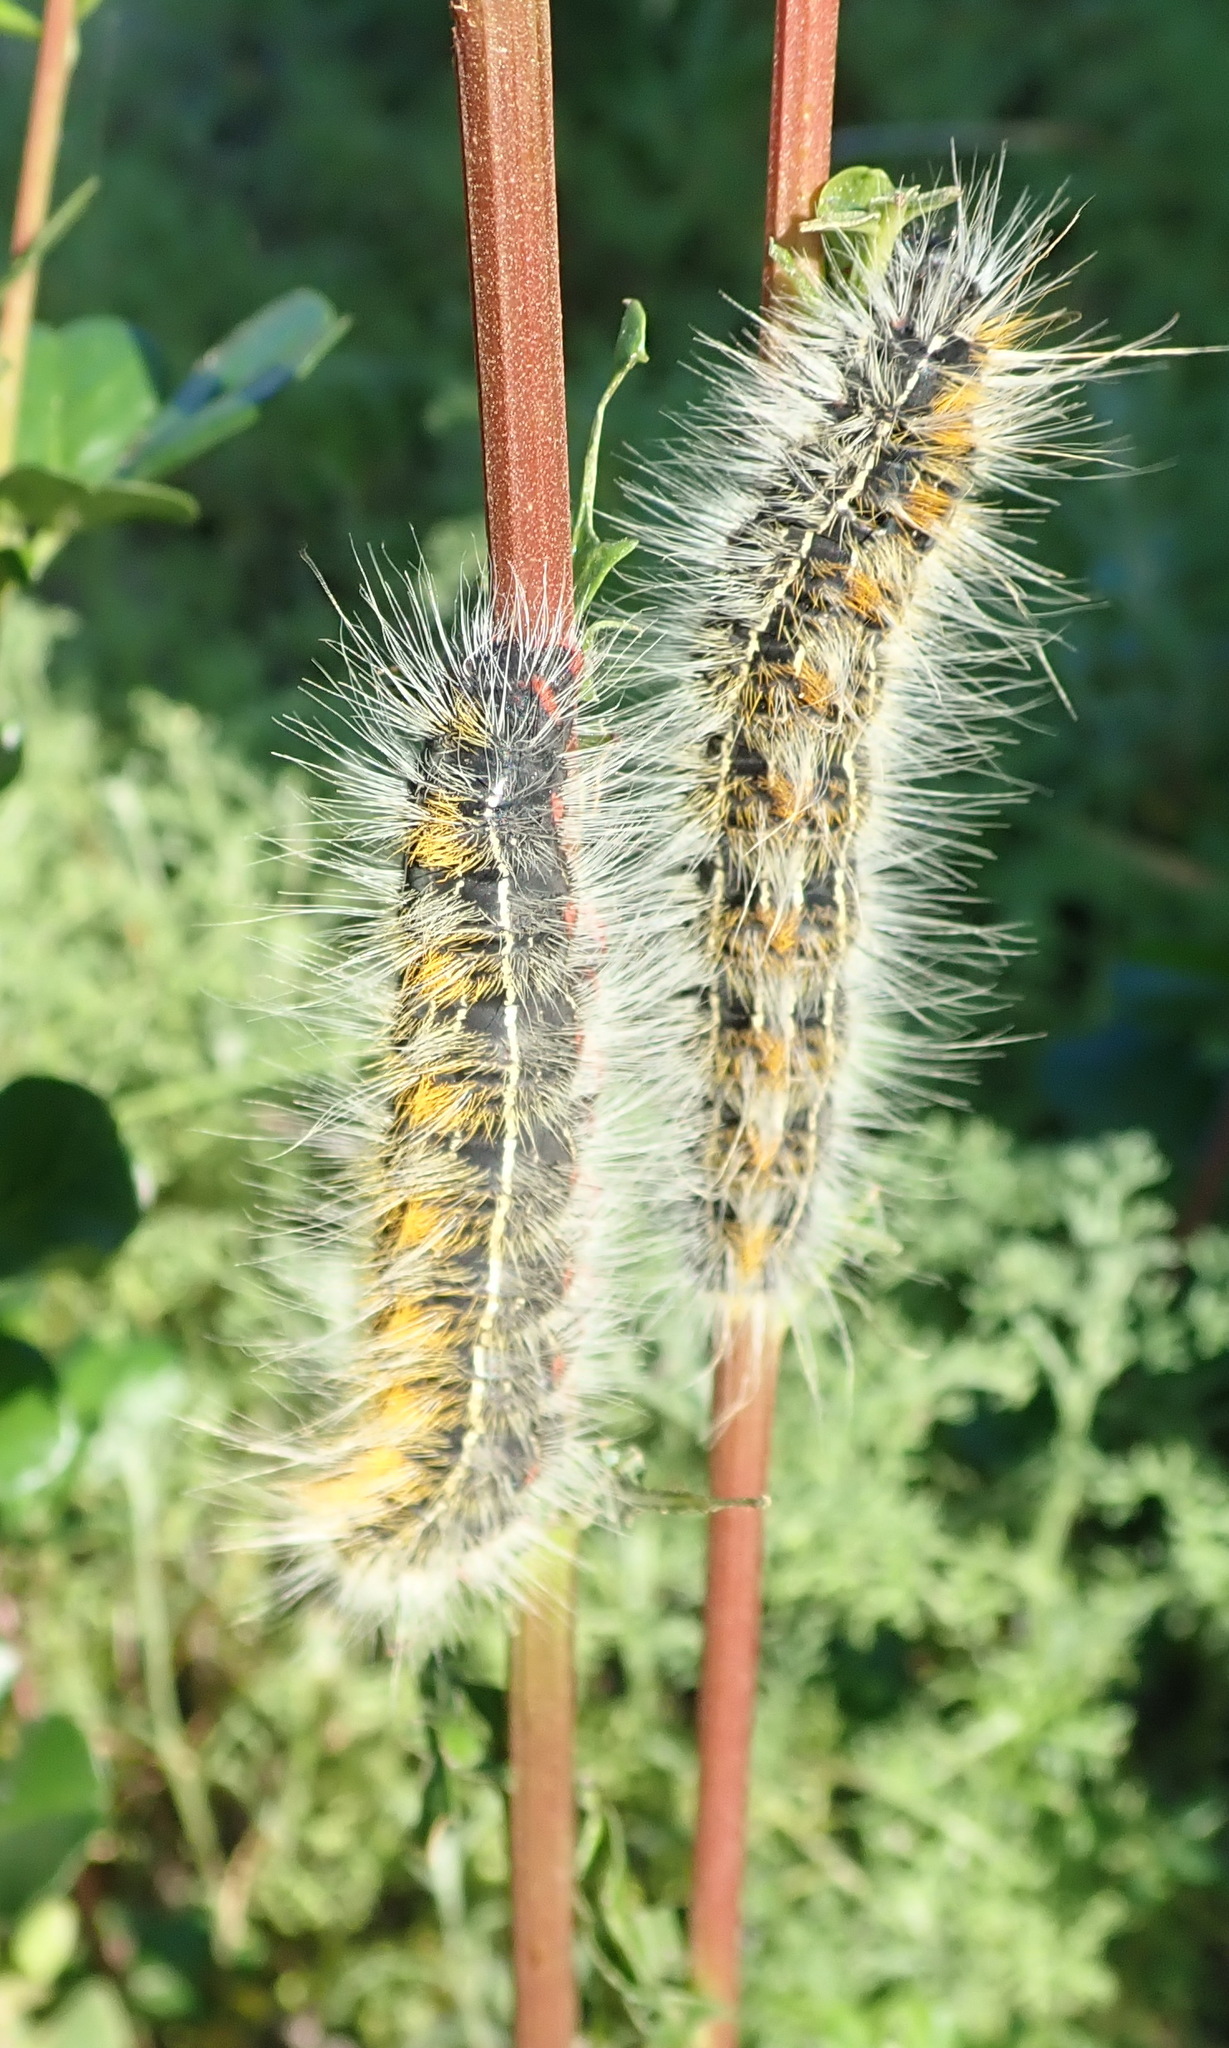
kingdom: Animalia
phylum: Arthropoda
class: Insecta
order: Lepidoptera
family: Lasiocampidae
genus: Bombycomorpha
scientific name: Bombycomorpha bifascia
